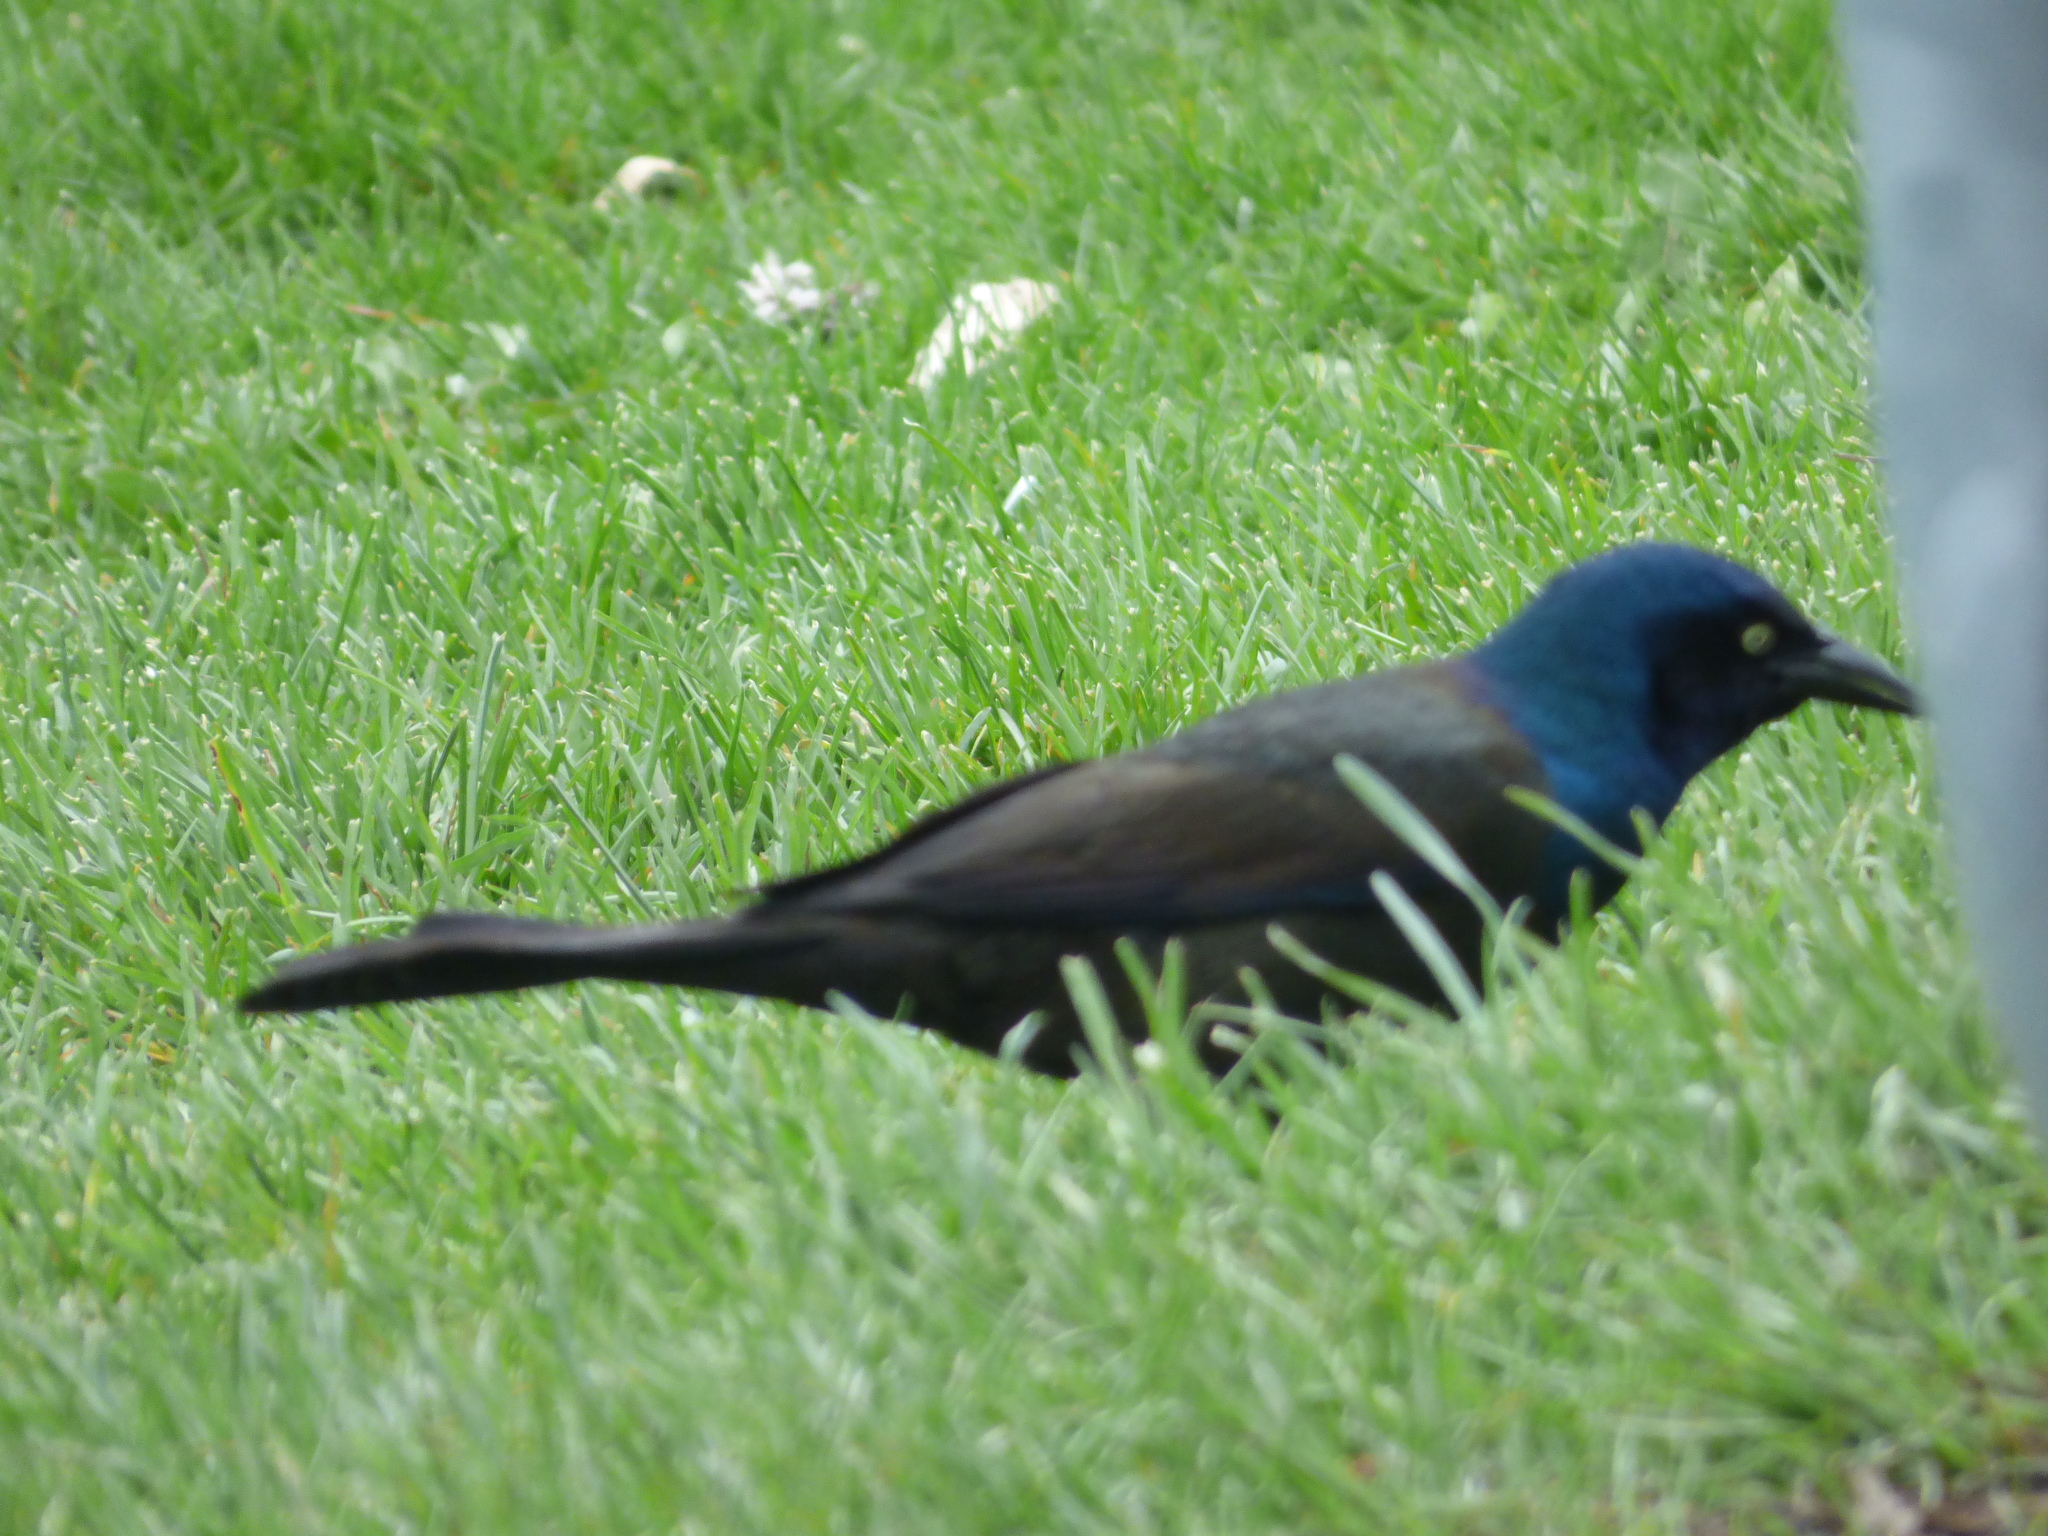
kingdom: Animalia
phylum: Chordata
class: Aves
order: Passeriformes
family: Icteridae
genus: Quiscalus
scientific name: Quiscalus quiscula
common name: Common grackle
